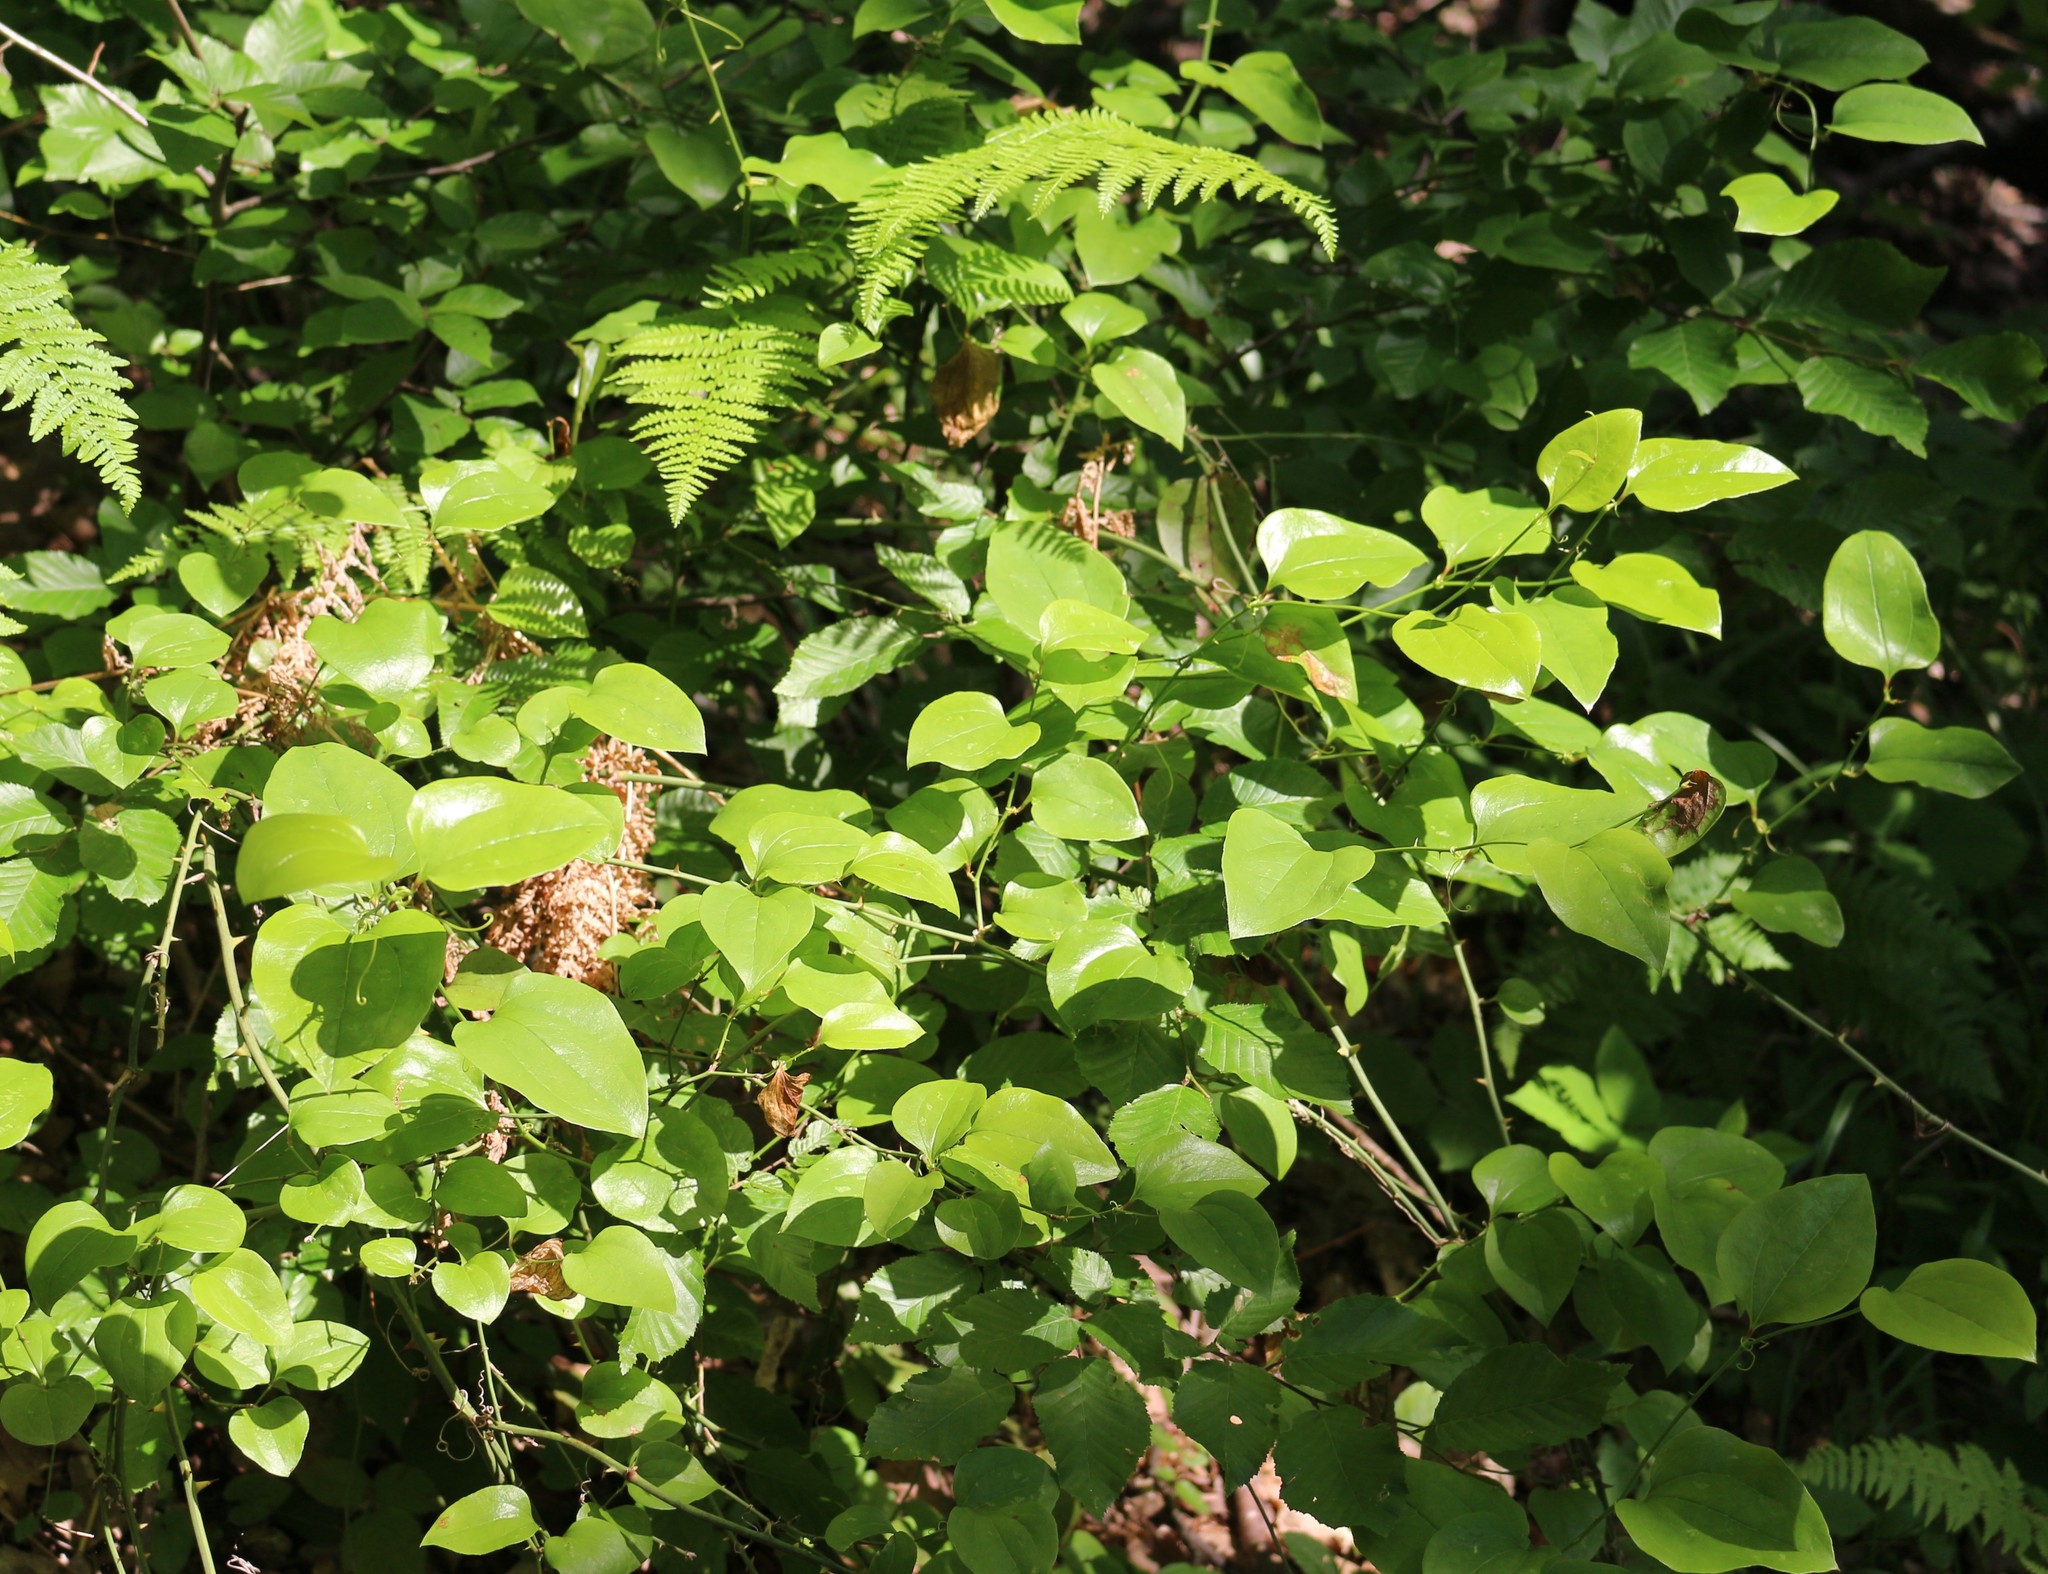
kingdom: Plantae
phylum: Tracheophyta
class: Liliopsida
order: Liliales
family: Smilacaceae
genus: Smilax
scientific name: Smilax excelsa
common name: Larger smilax
